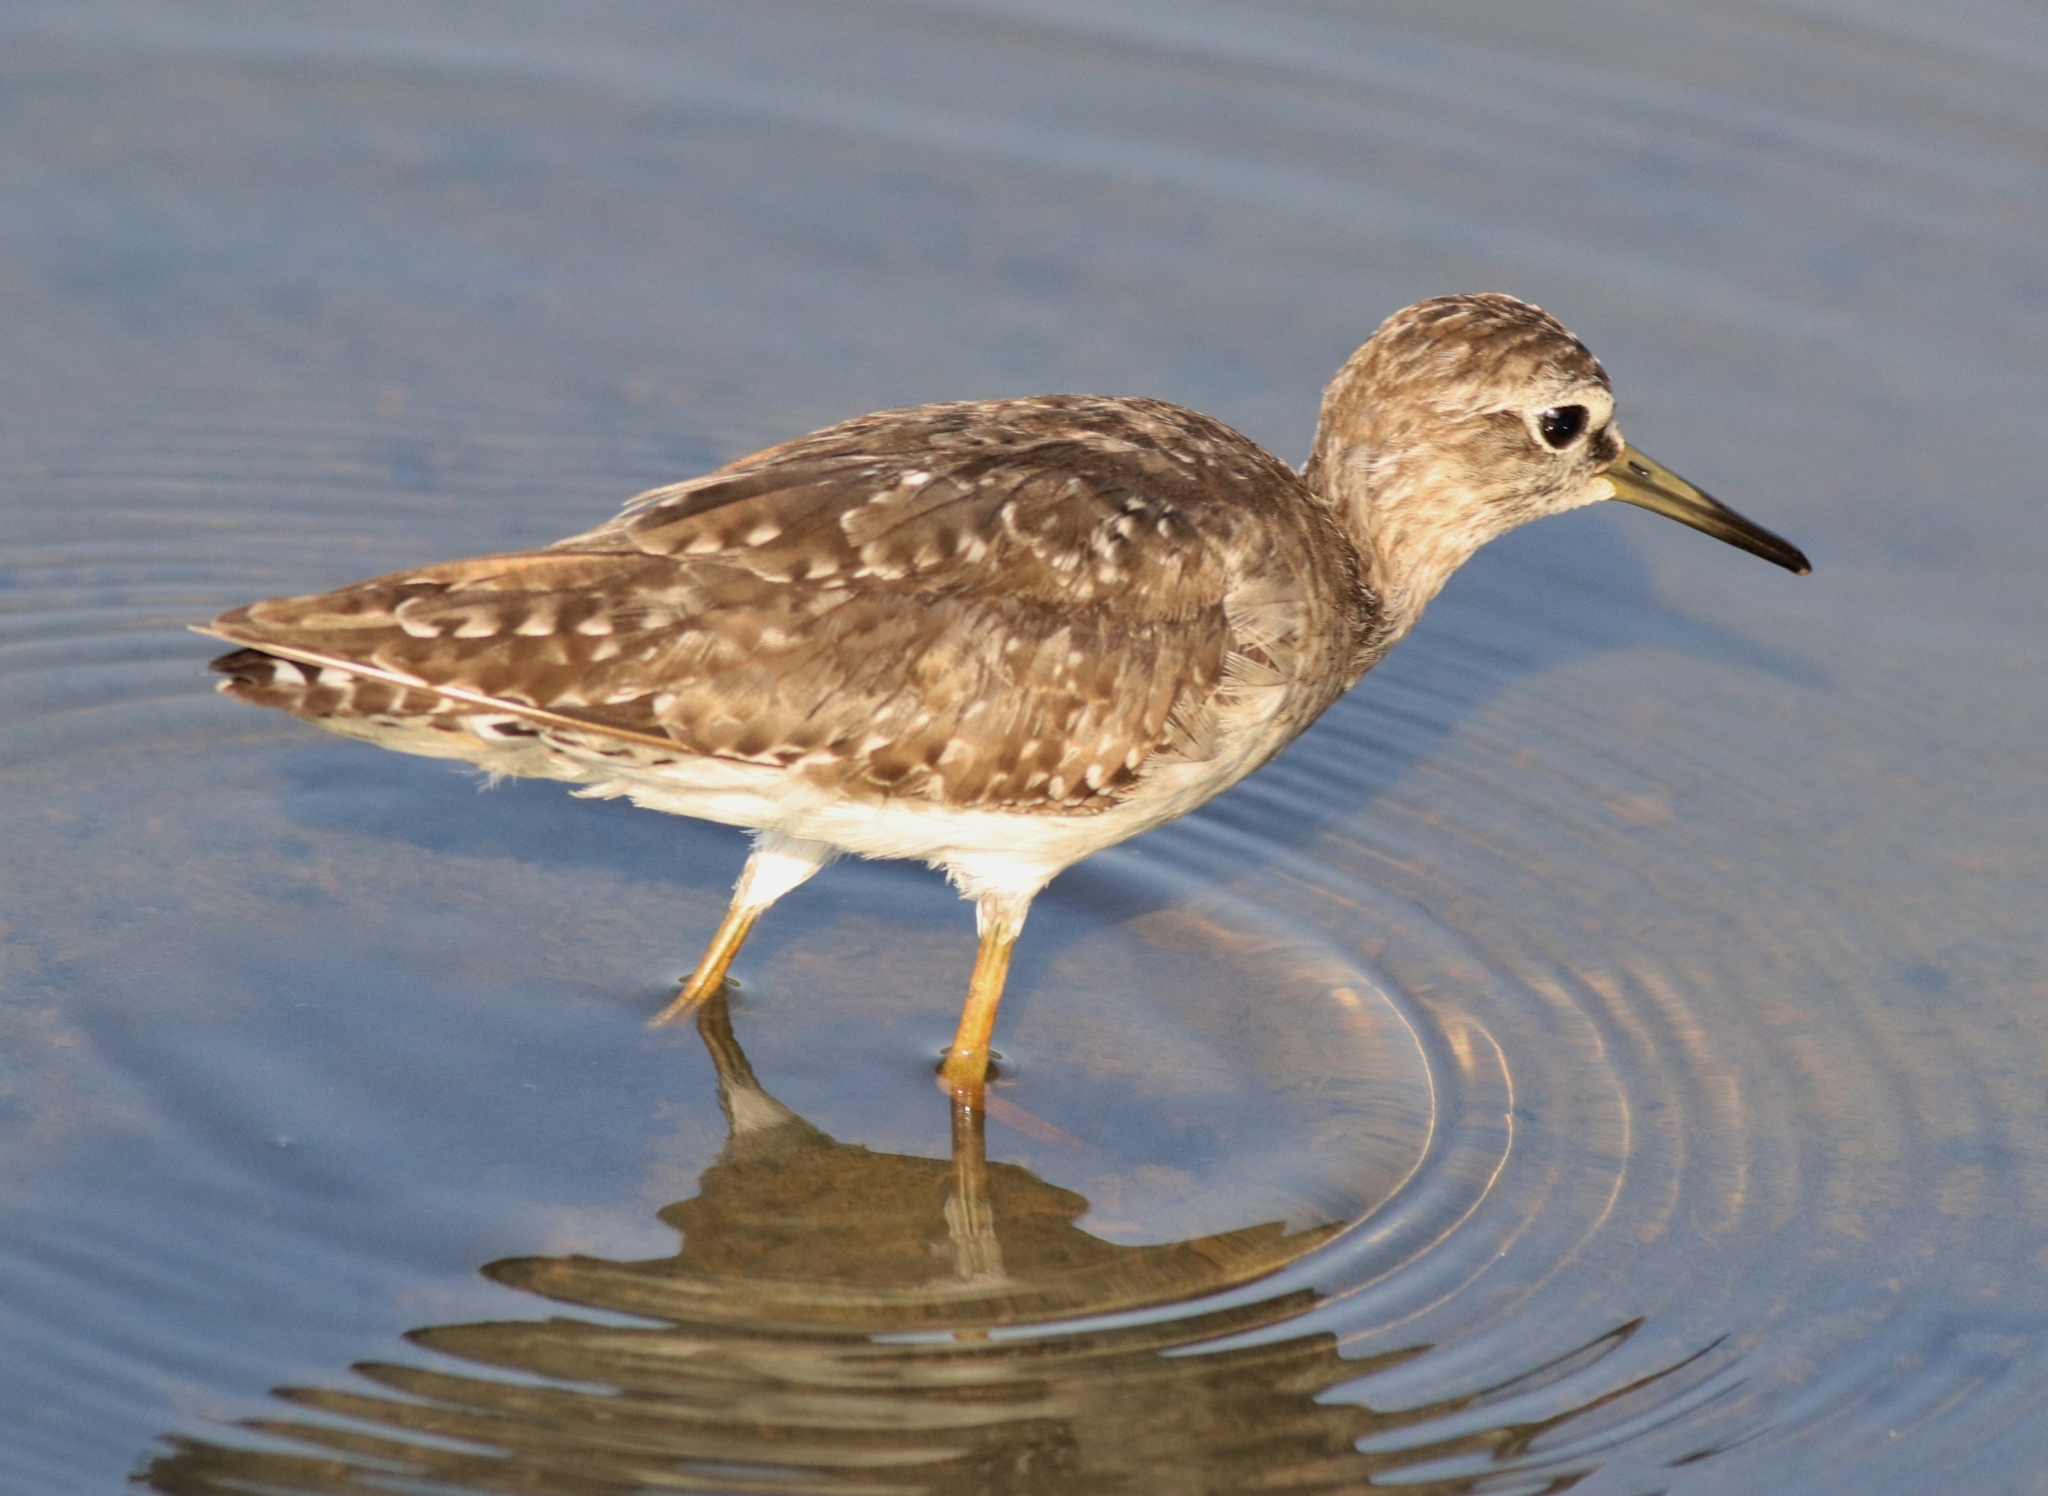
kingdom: Animalia
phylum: Chordata
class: Aves
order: Charadriiformes
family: Scolopacidae
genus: Tringa
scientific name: Tringa glareola
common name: Wood sandpiper
